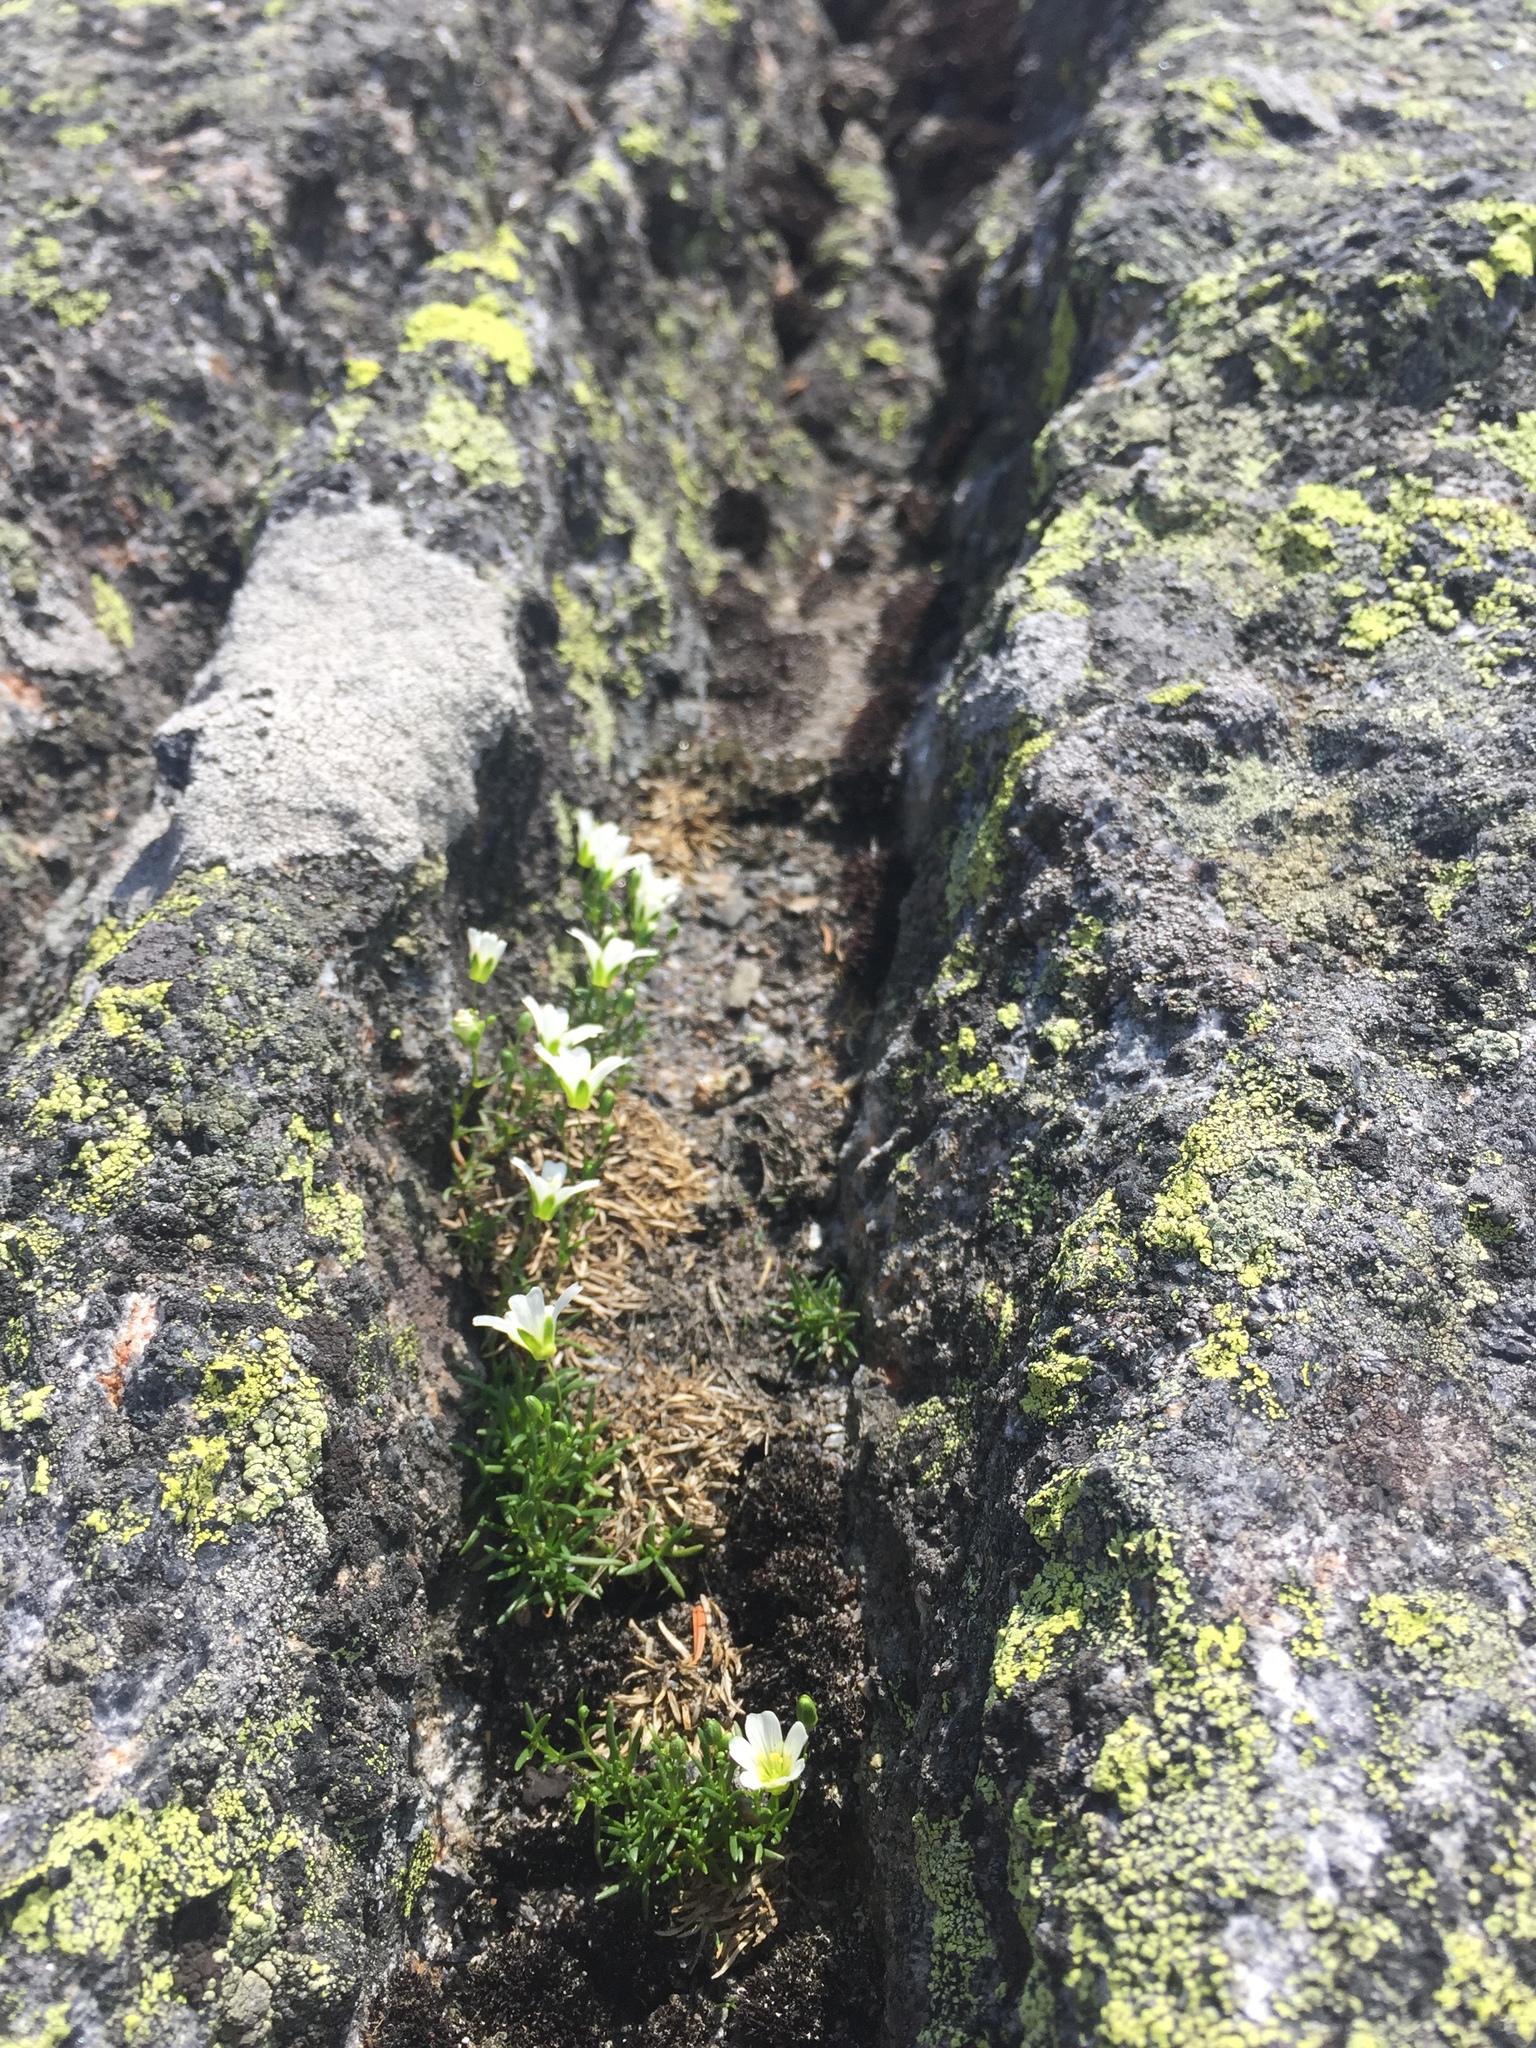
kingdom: Plantae
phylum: Tracheophyta
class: Magnoliopsida
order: Caryophyllales
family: Caryophyllaceae
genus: Geocarpon
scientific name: Geocarpon groenlandicum
